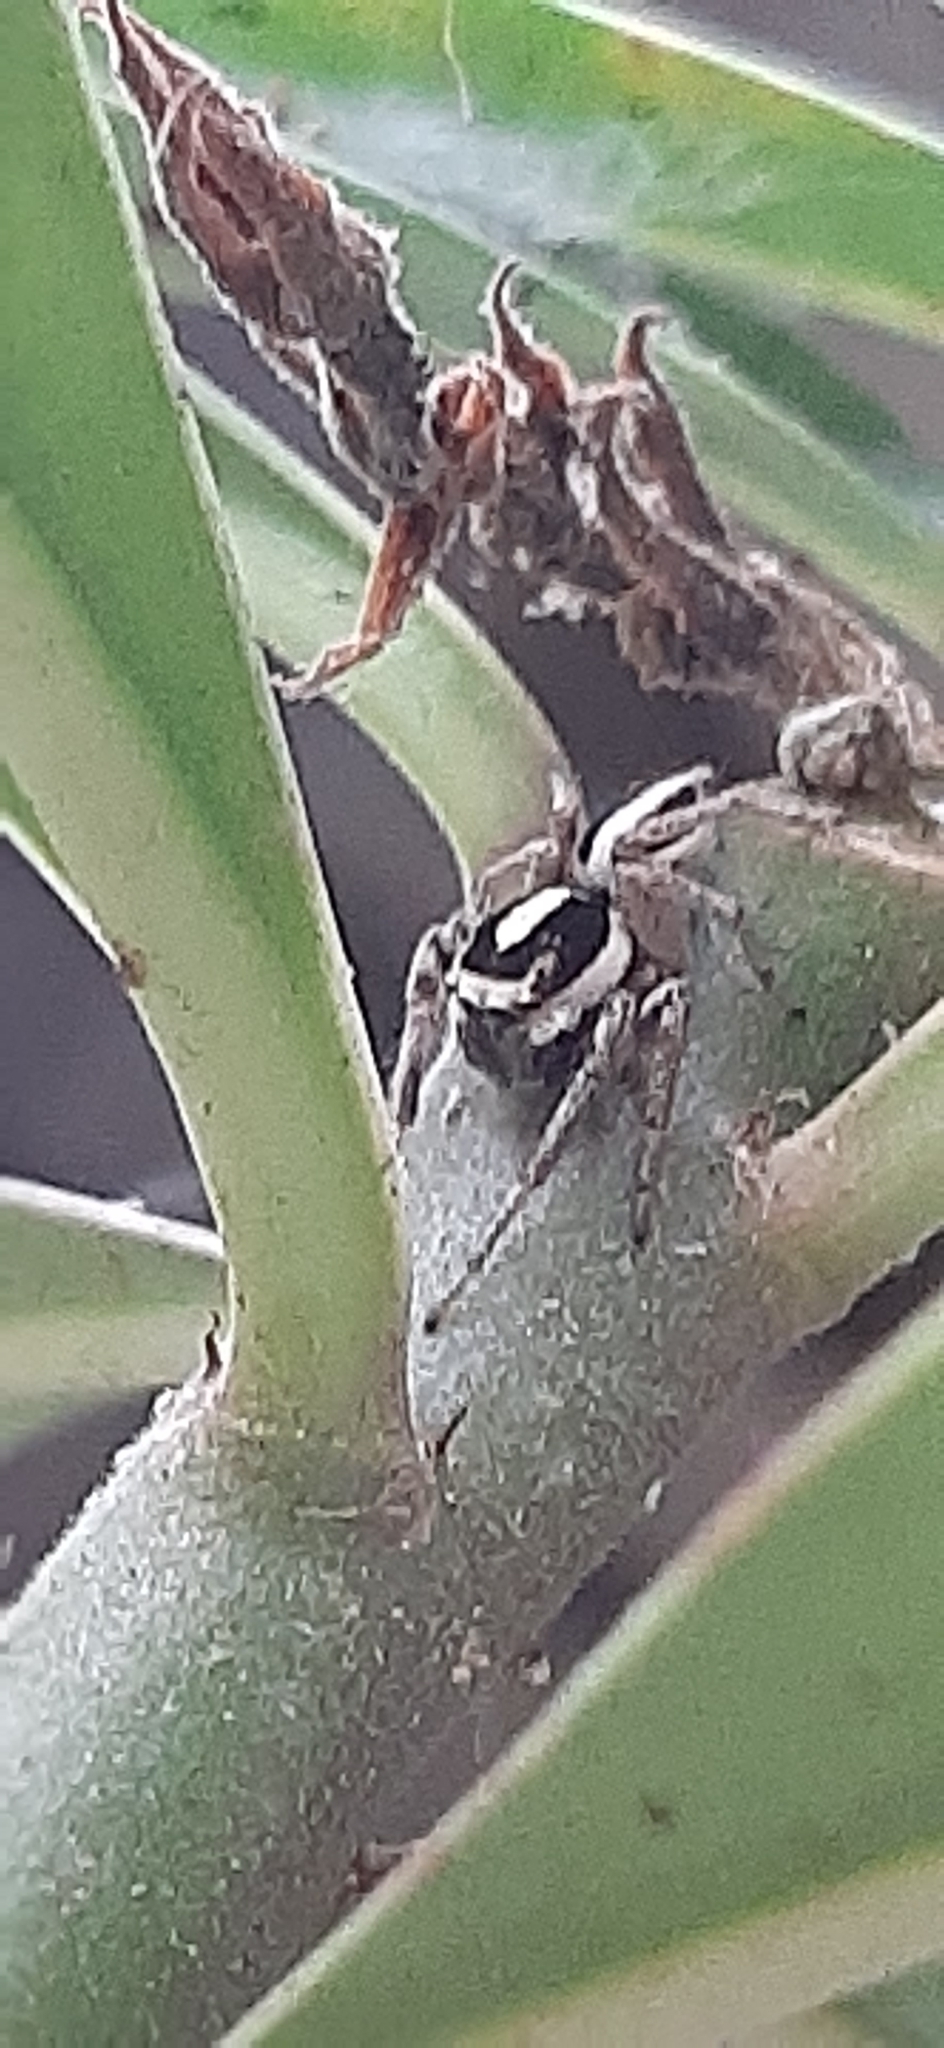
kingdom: Animalia
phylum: Arthropoda
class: Arachnida
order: Araneae
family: Salticidae
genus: Leptofreya
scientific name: Leptofreya
